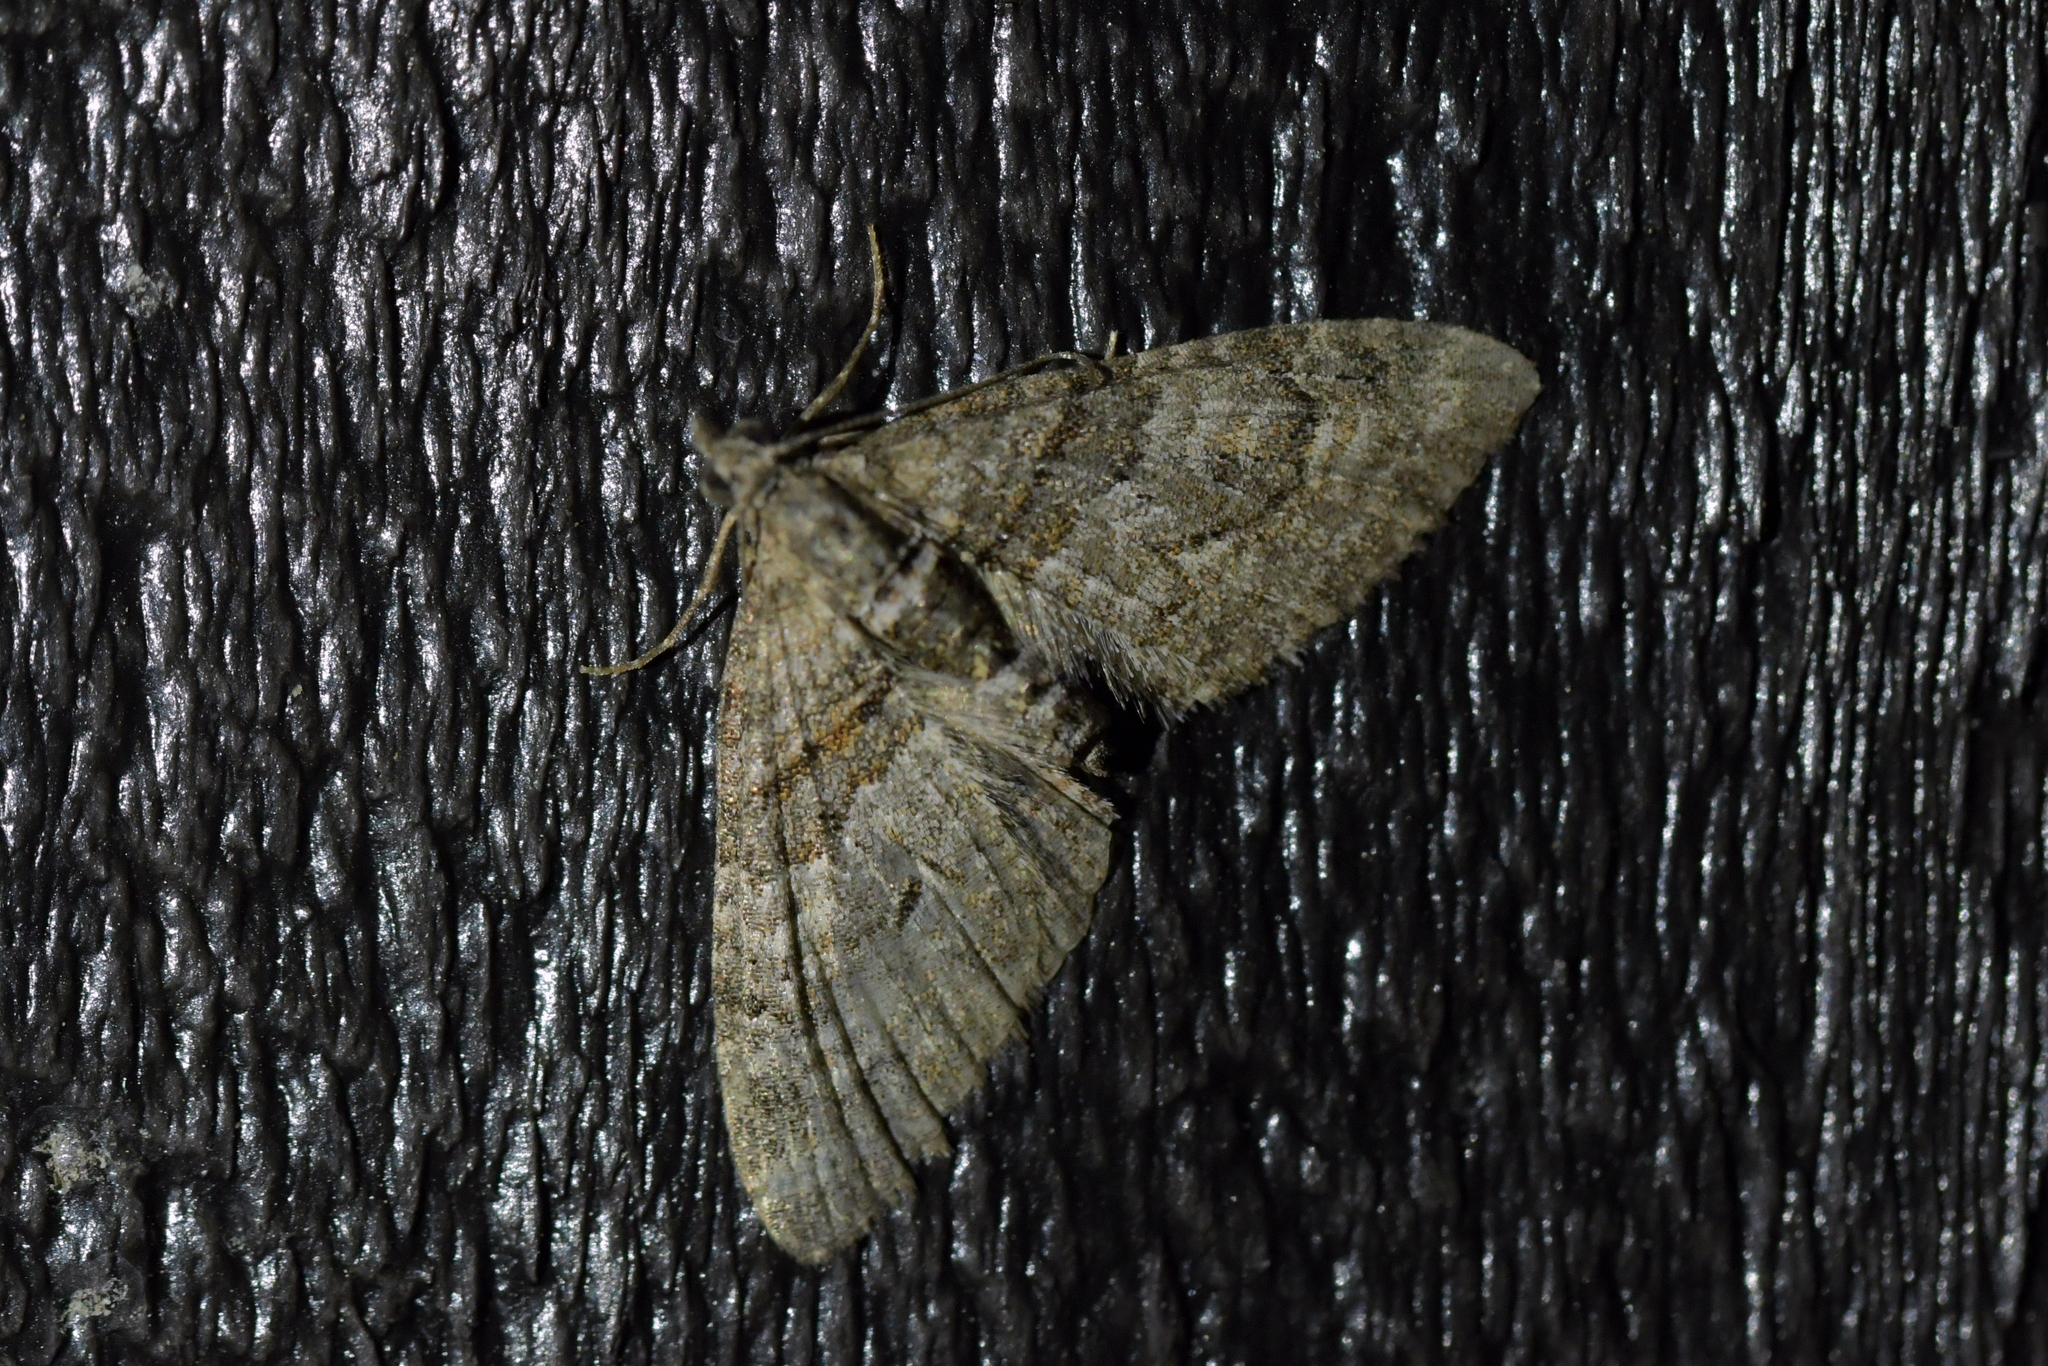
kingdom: Animalia
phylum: Arthropoda
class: Insecta
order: Lepidoptera
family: Geometridae
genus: Phrissogonus
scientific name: Phrissogonus laticostata
